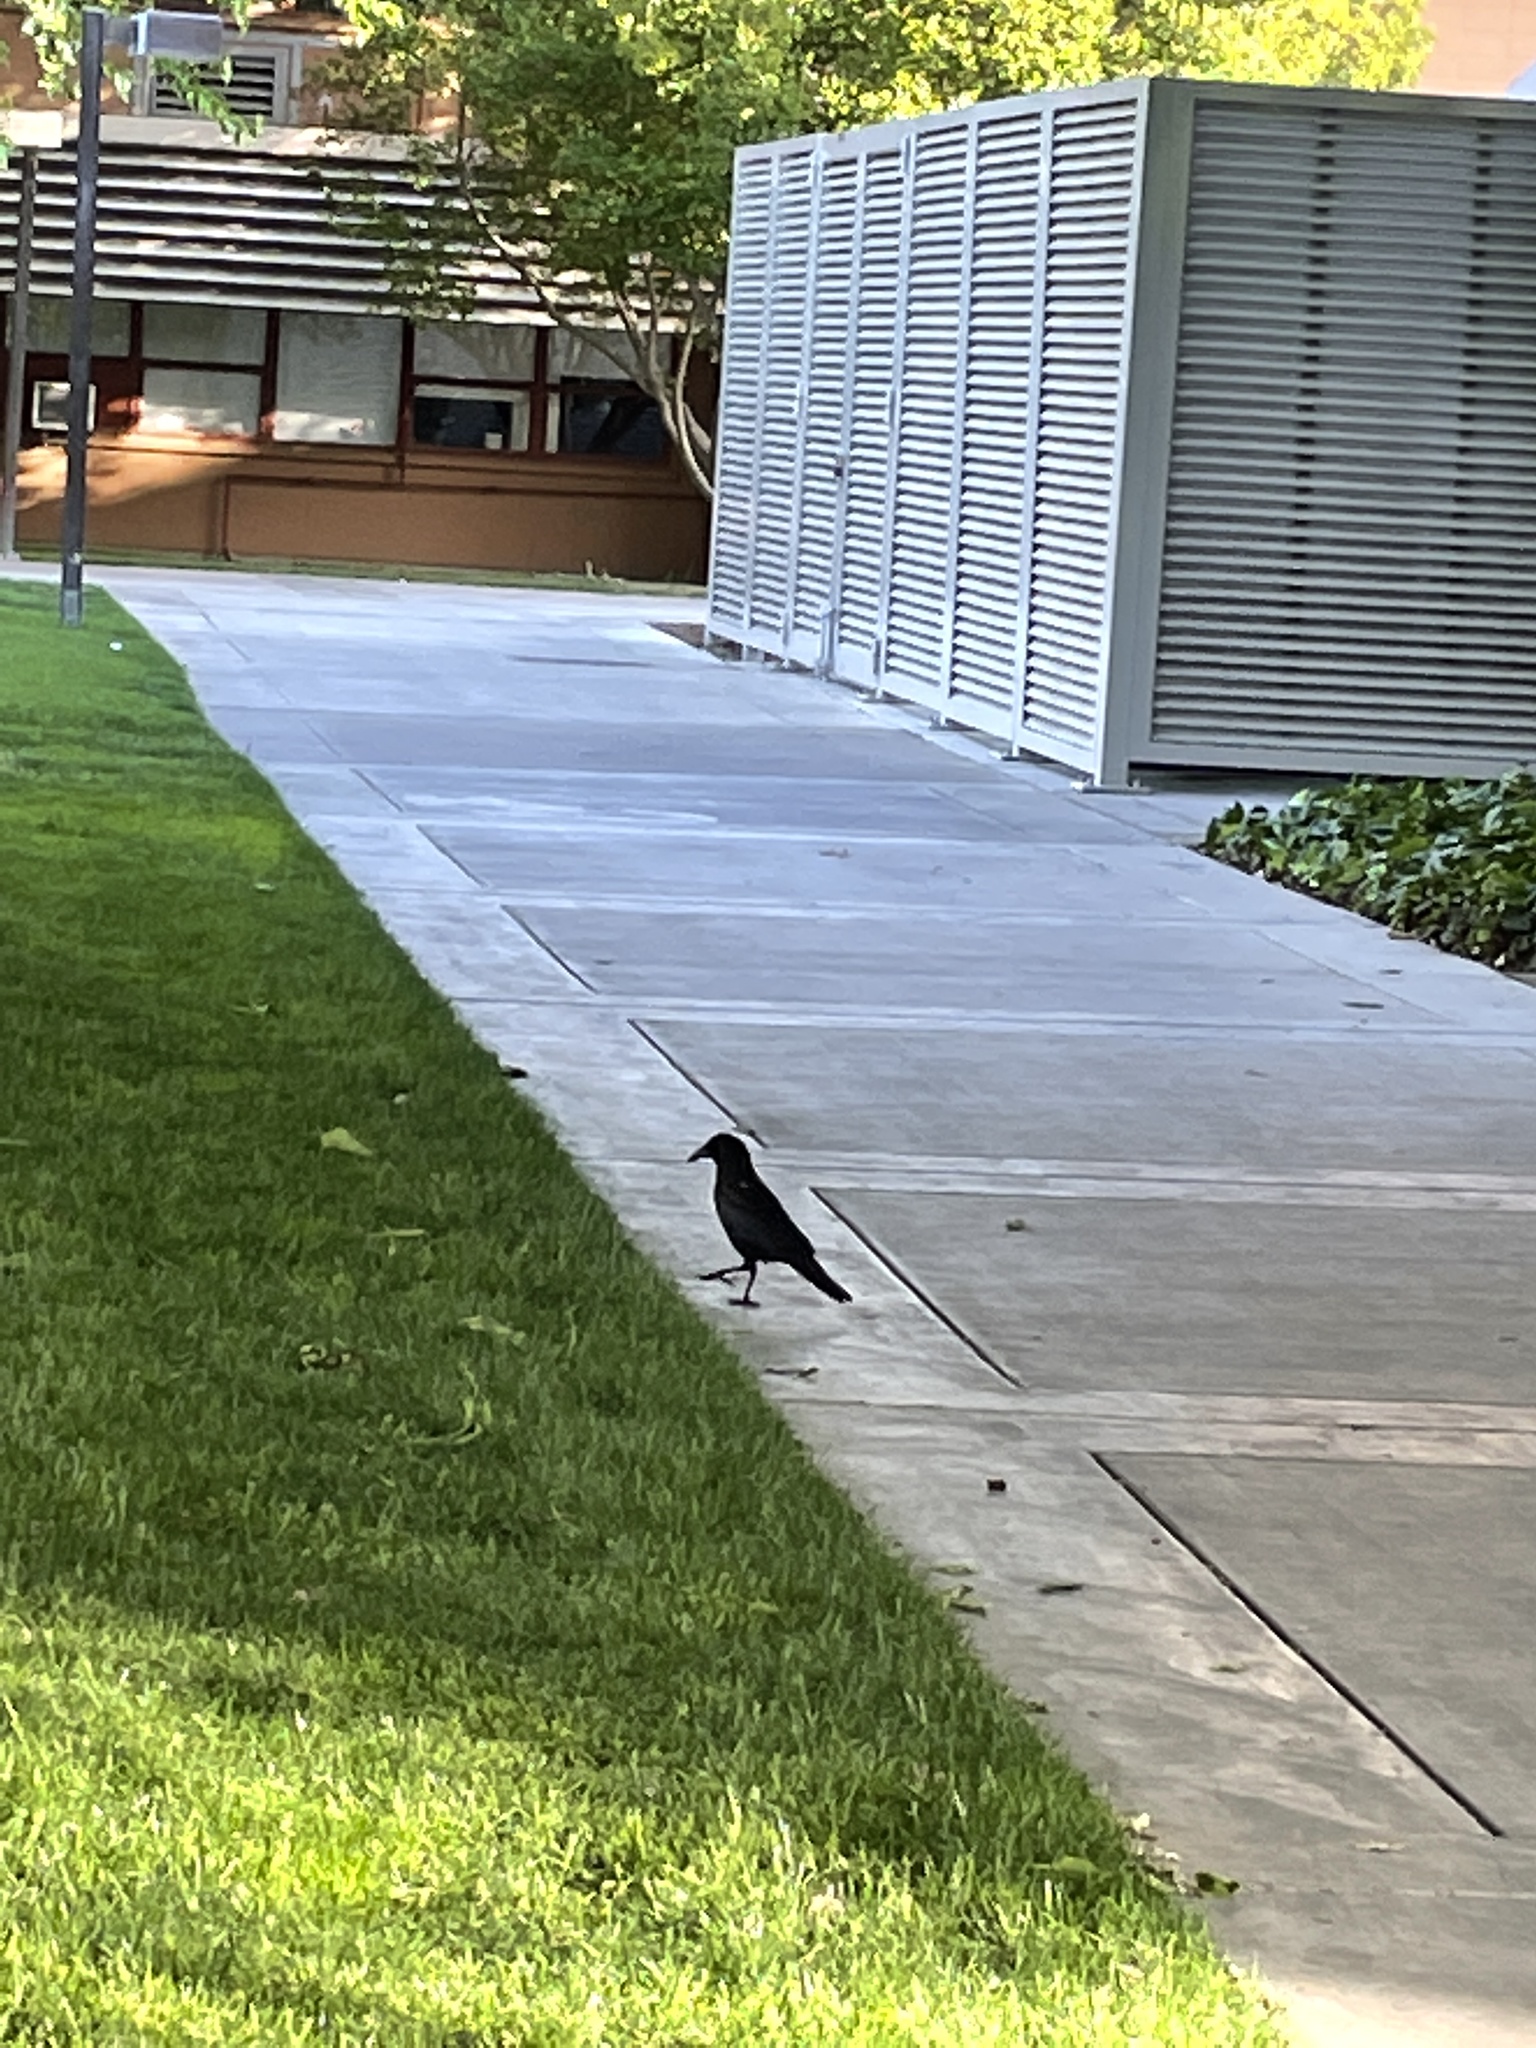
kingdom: Animalia
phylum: Chordata
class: Aves
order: Passeriformes
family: Corvidae
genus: Corvus
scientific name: Corvus brachyrhynchos
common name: American crow
